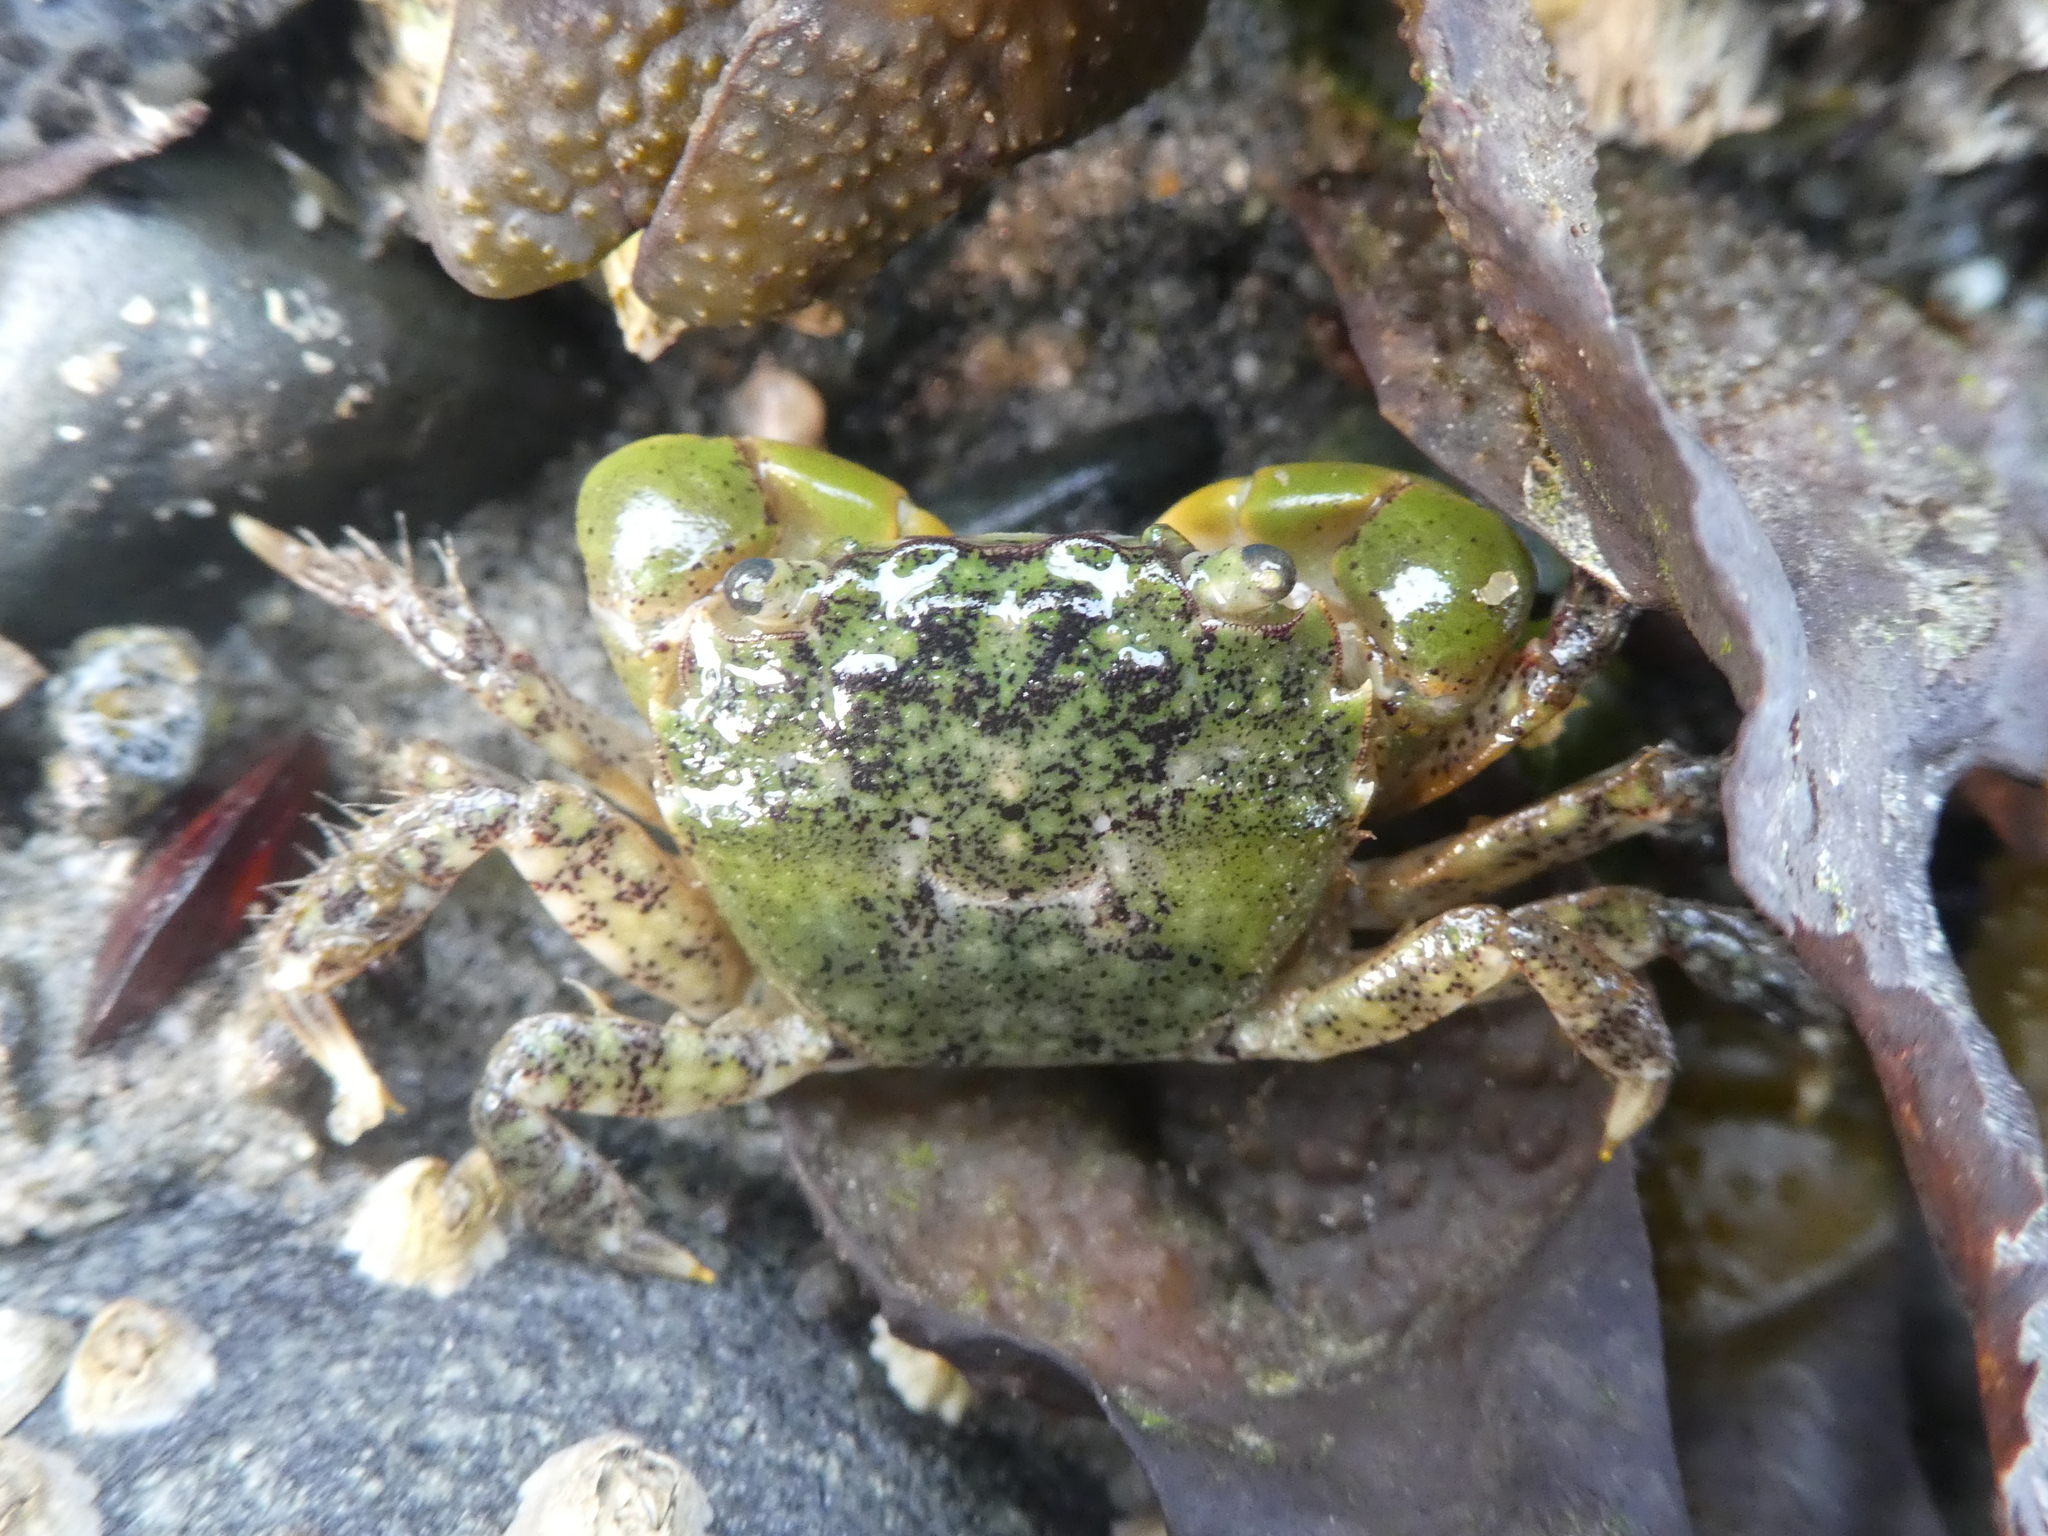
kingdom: Animalia
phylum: Arthropoda
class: Malacostraca
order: Decapoda
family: Varunidae
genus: Hemigrapsus
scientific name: Hemigrapsus oregonensis
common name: Yellow shore crab
